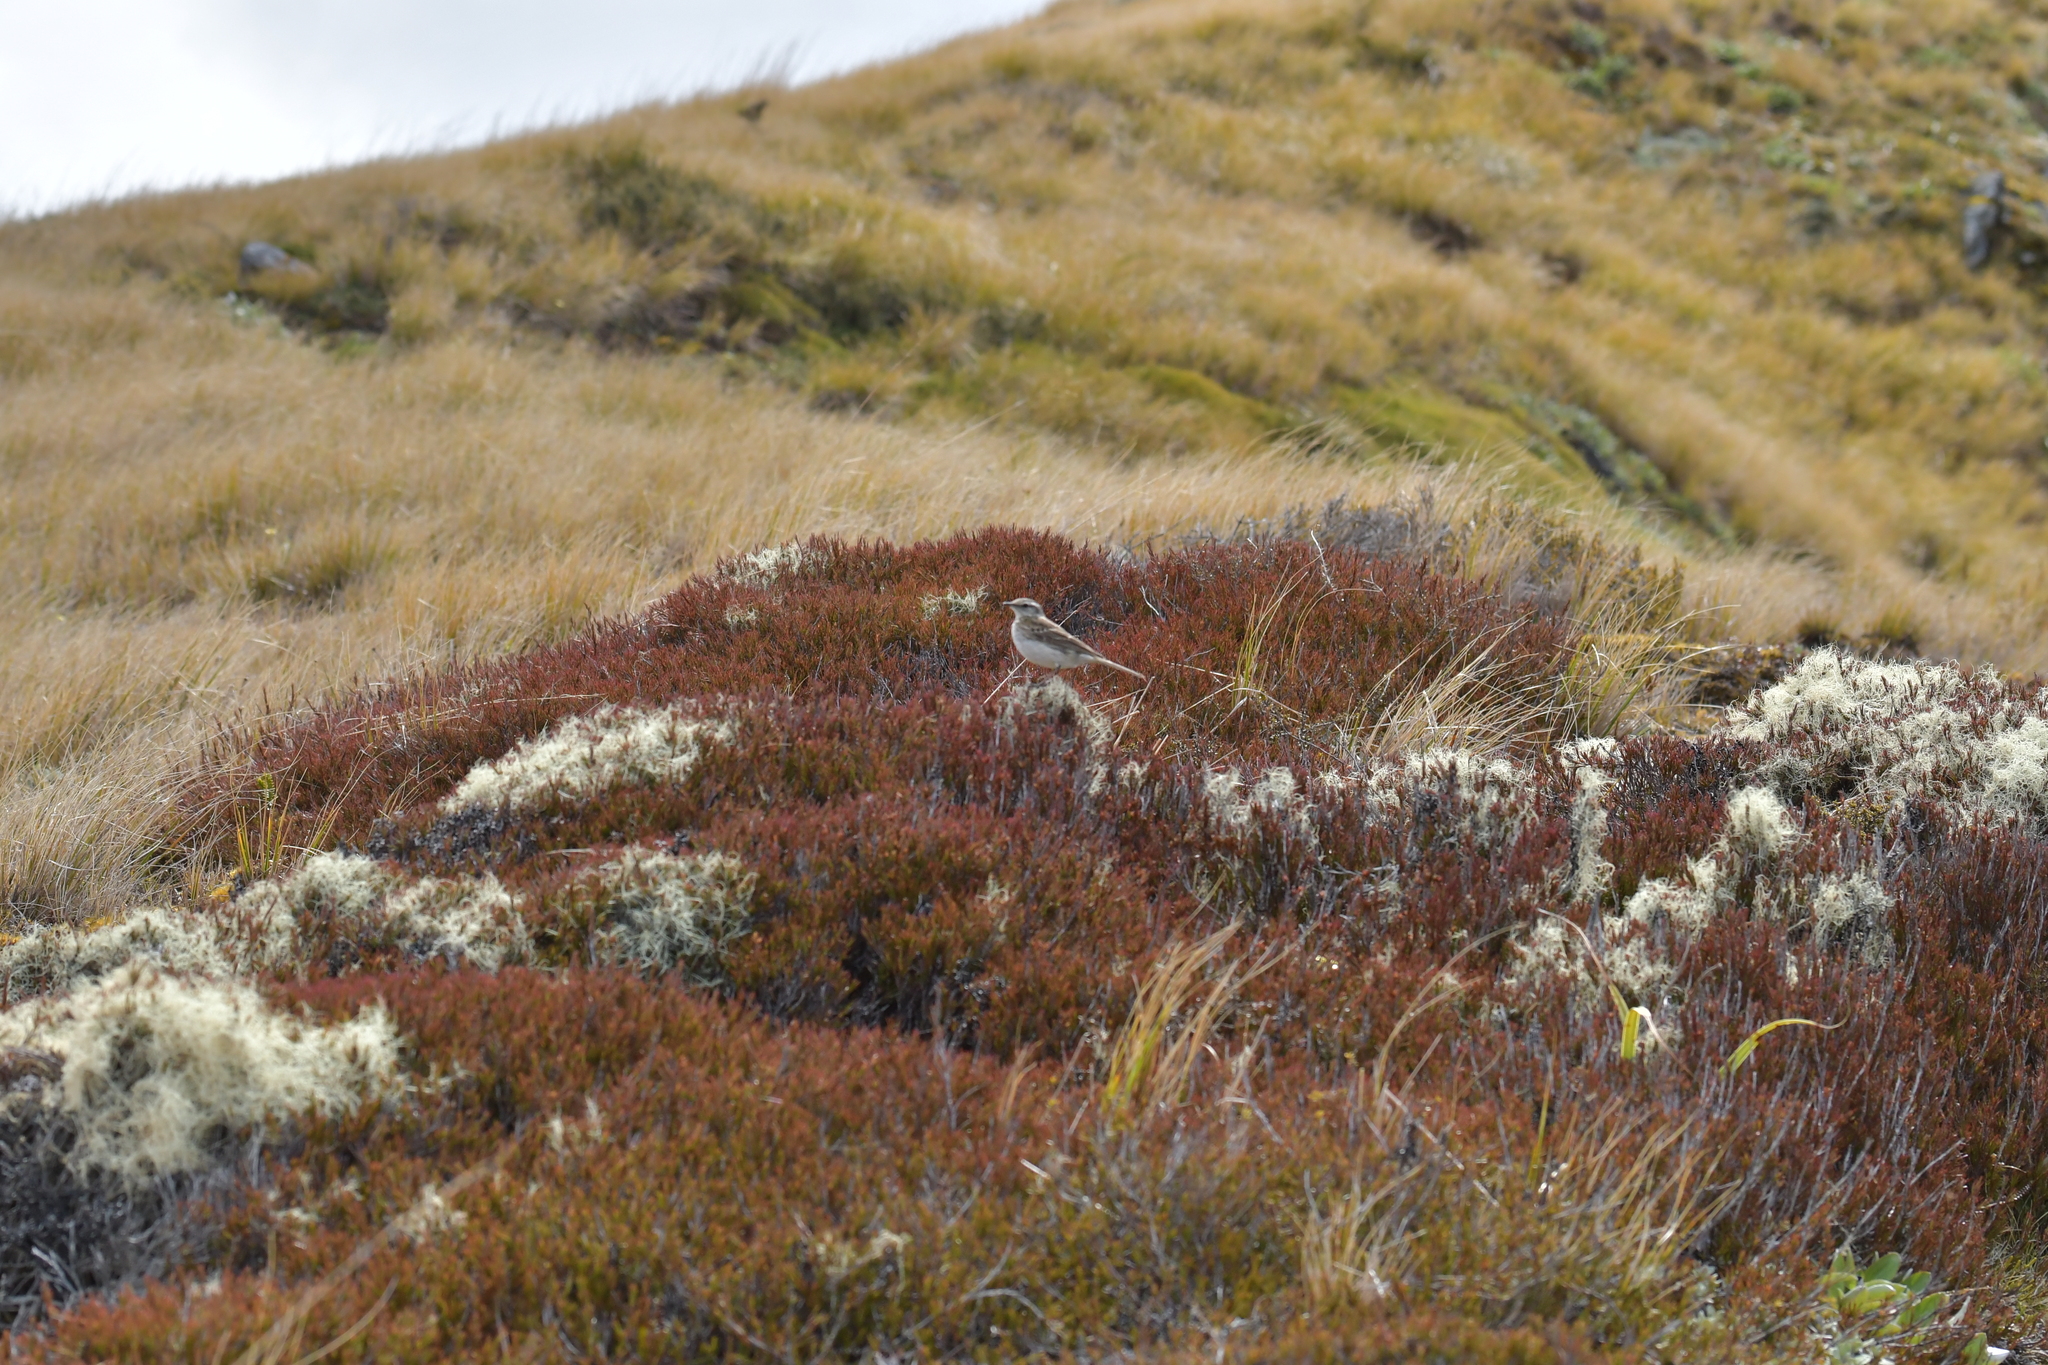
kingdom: Animalia
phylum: Chordata
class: Aves
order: Passeriformes
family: Motacillidae
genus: Anthus
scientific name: Anthus novaeseelandiae
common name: New zealand pipit
